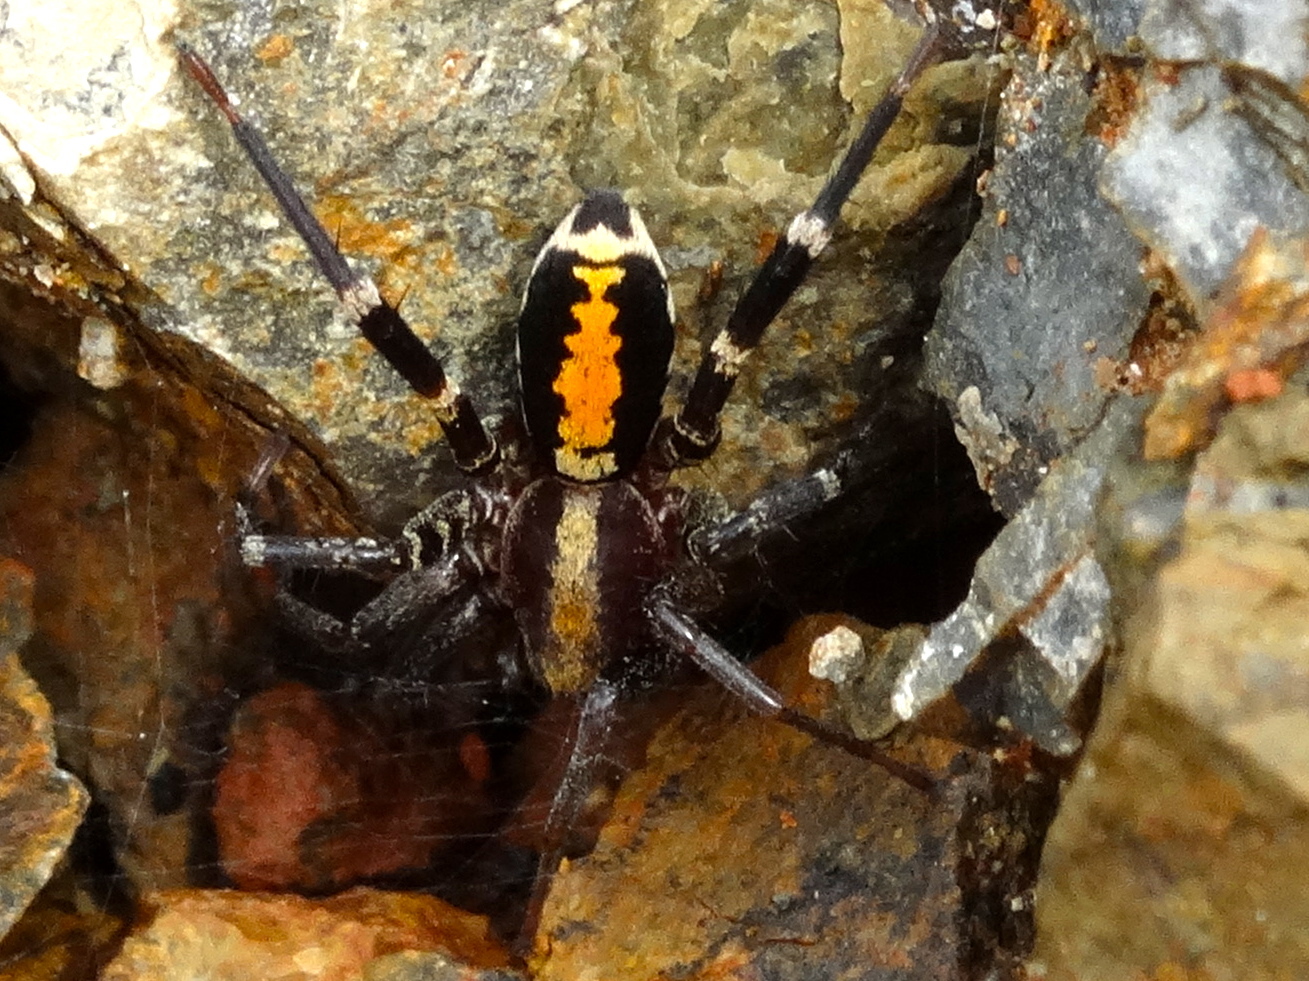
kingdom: Animalia
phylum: Arthropoda
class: Arachnida
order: Araneae
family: Corinnidae
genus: Castianeira
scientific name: Castianeira dorsata
